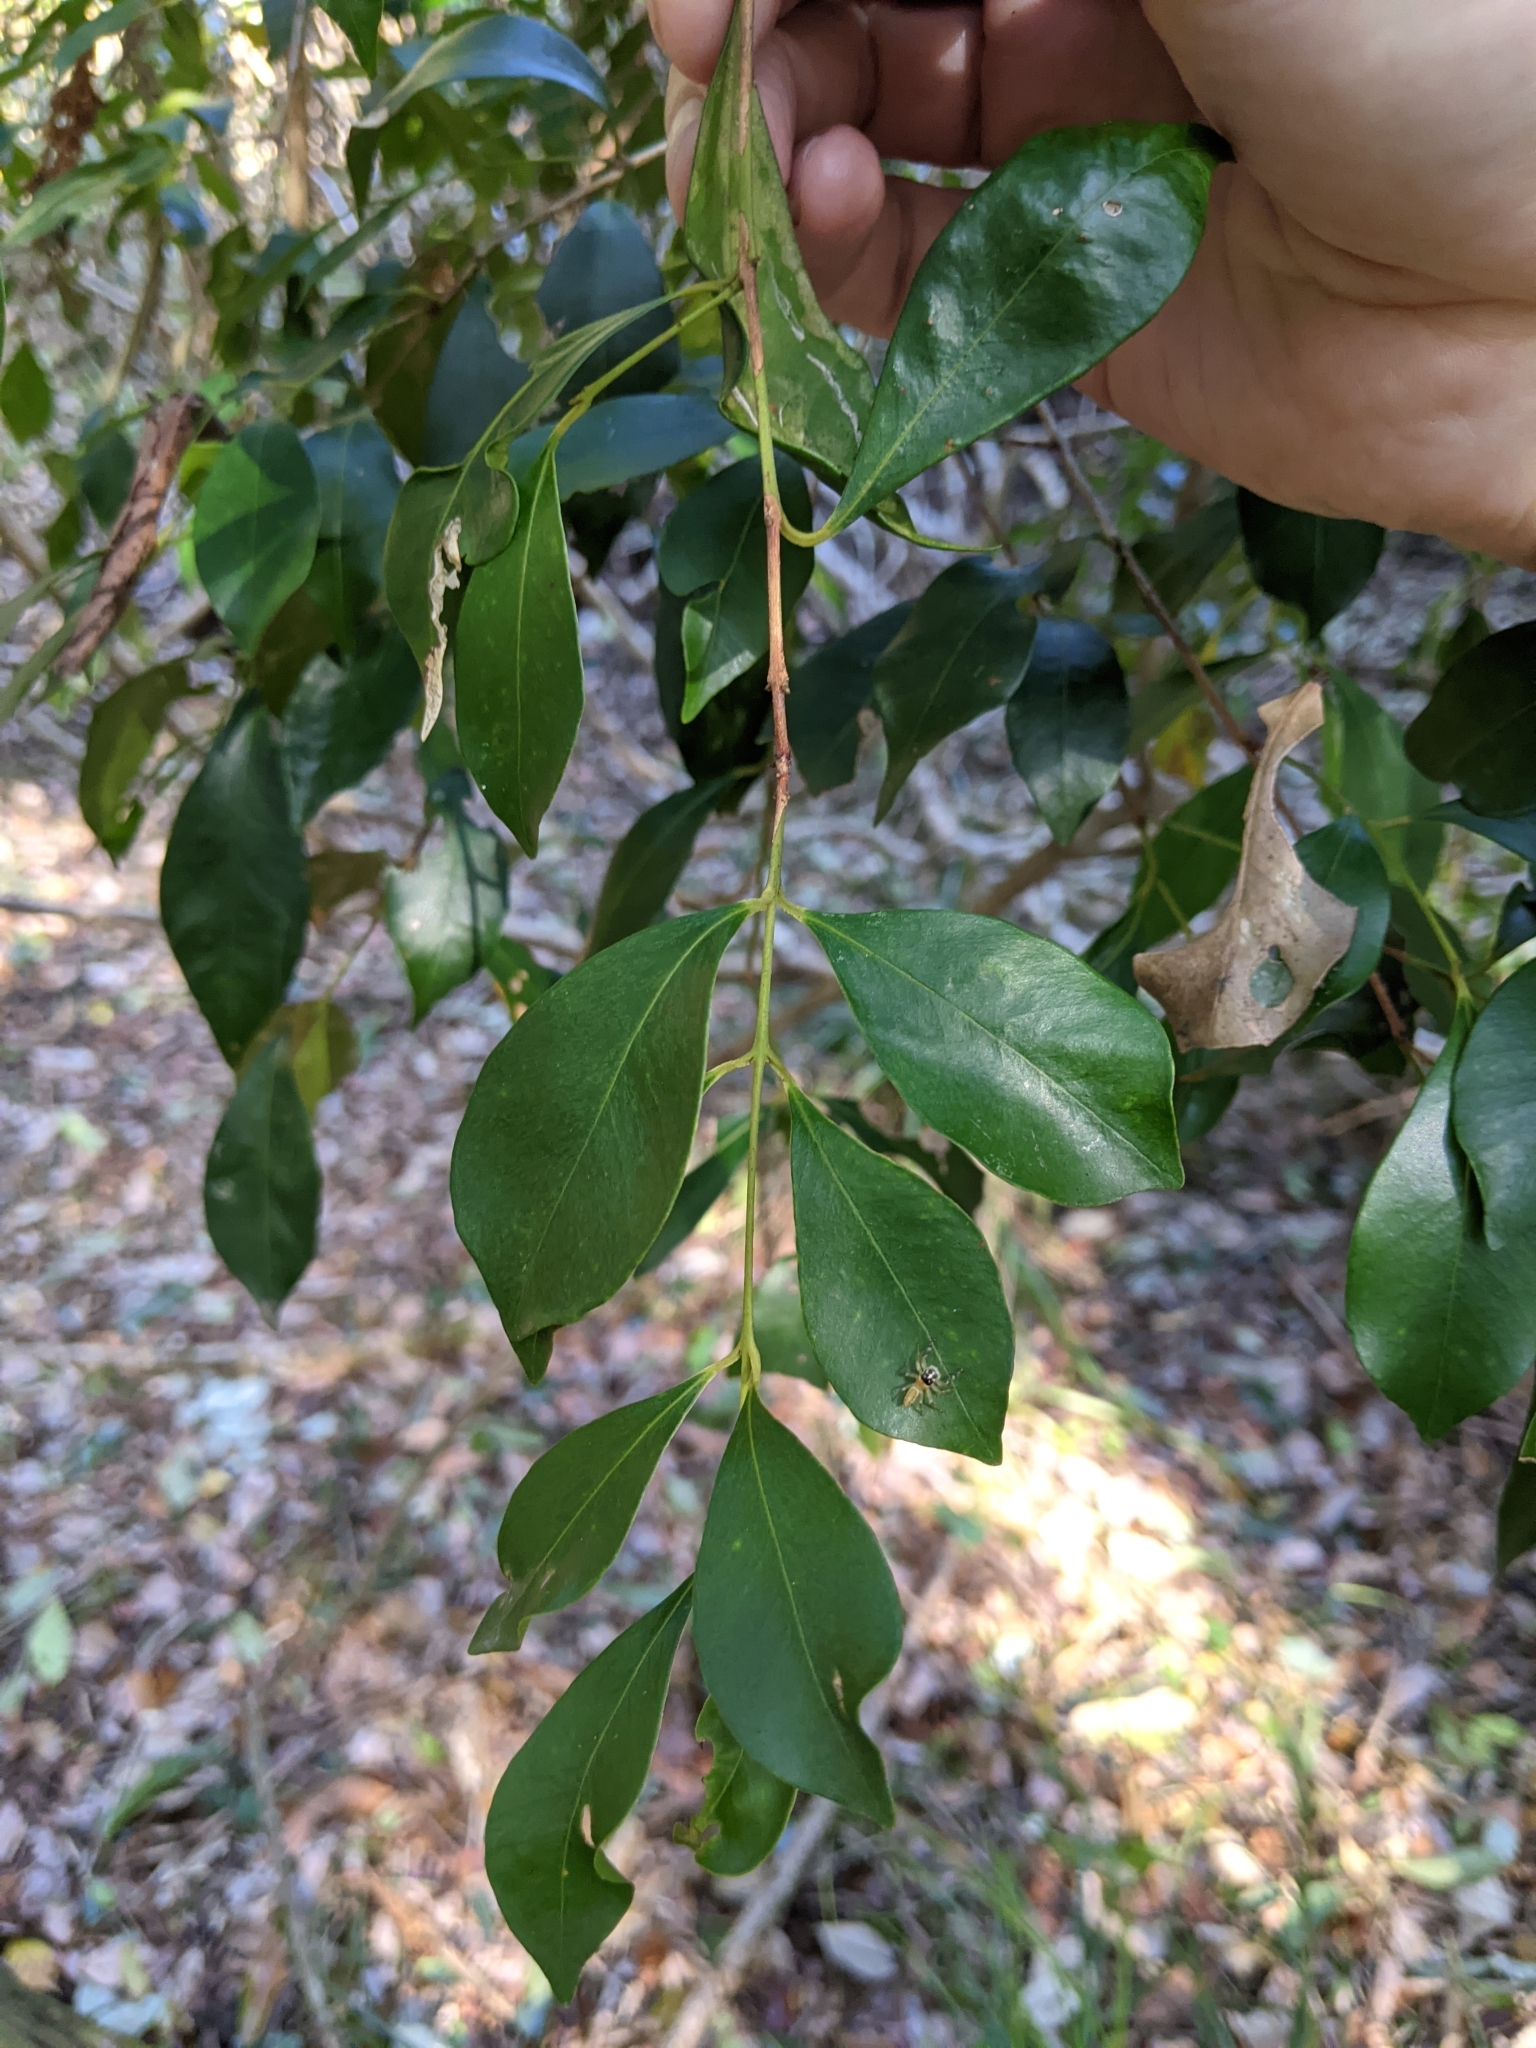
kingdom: Plantae
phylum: Tracheophyta
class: Magnoliopsida
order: Myrtales
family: Myrtaceae
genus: Syzygium
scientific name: Syzygium smithii
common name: Lilly-pilly
